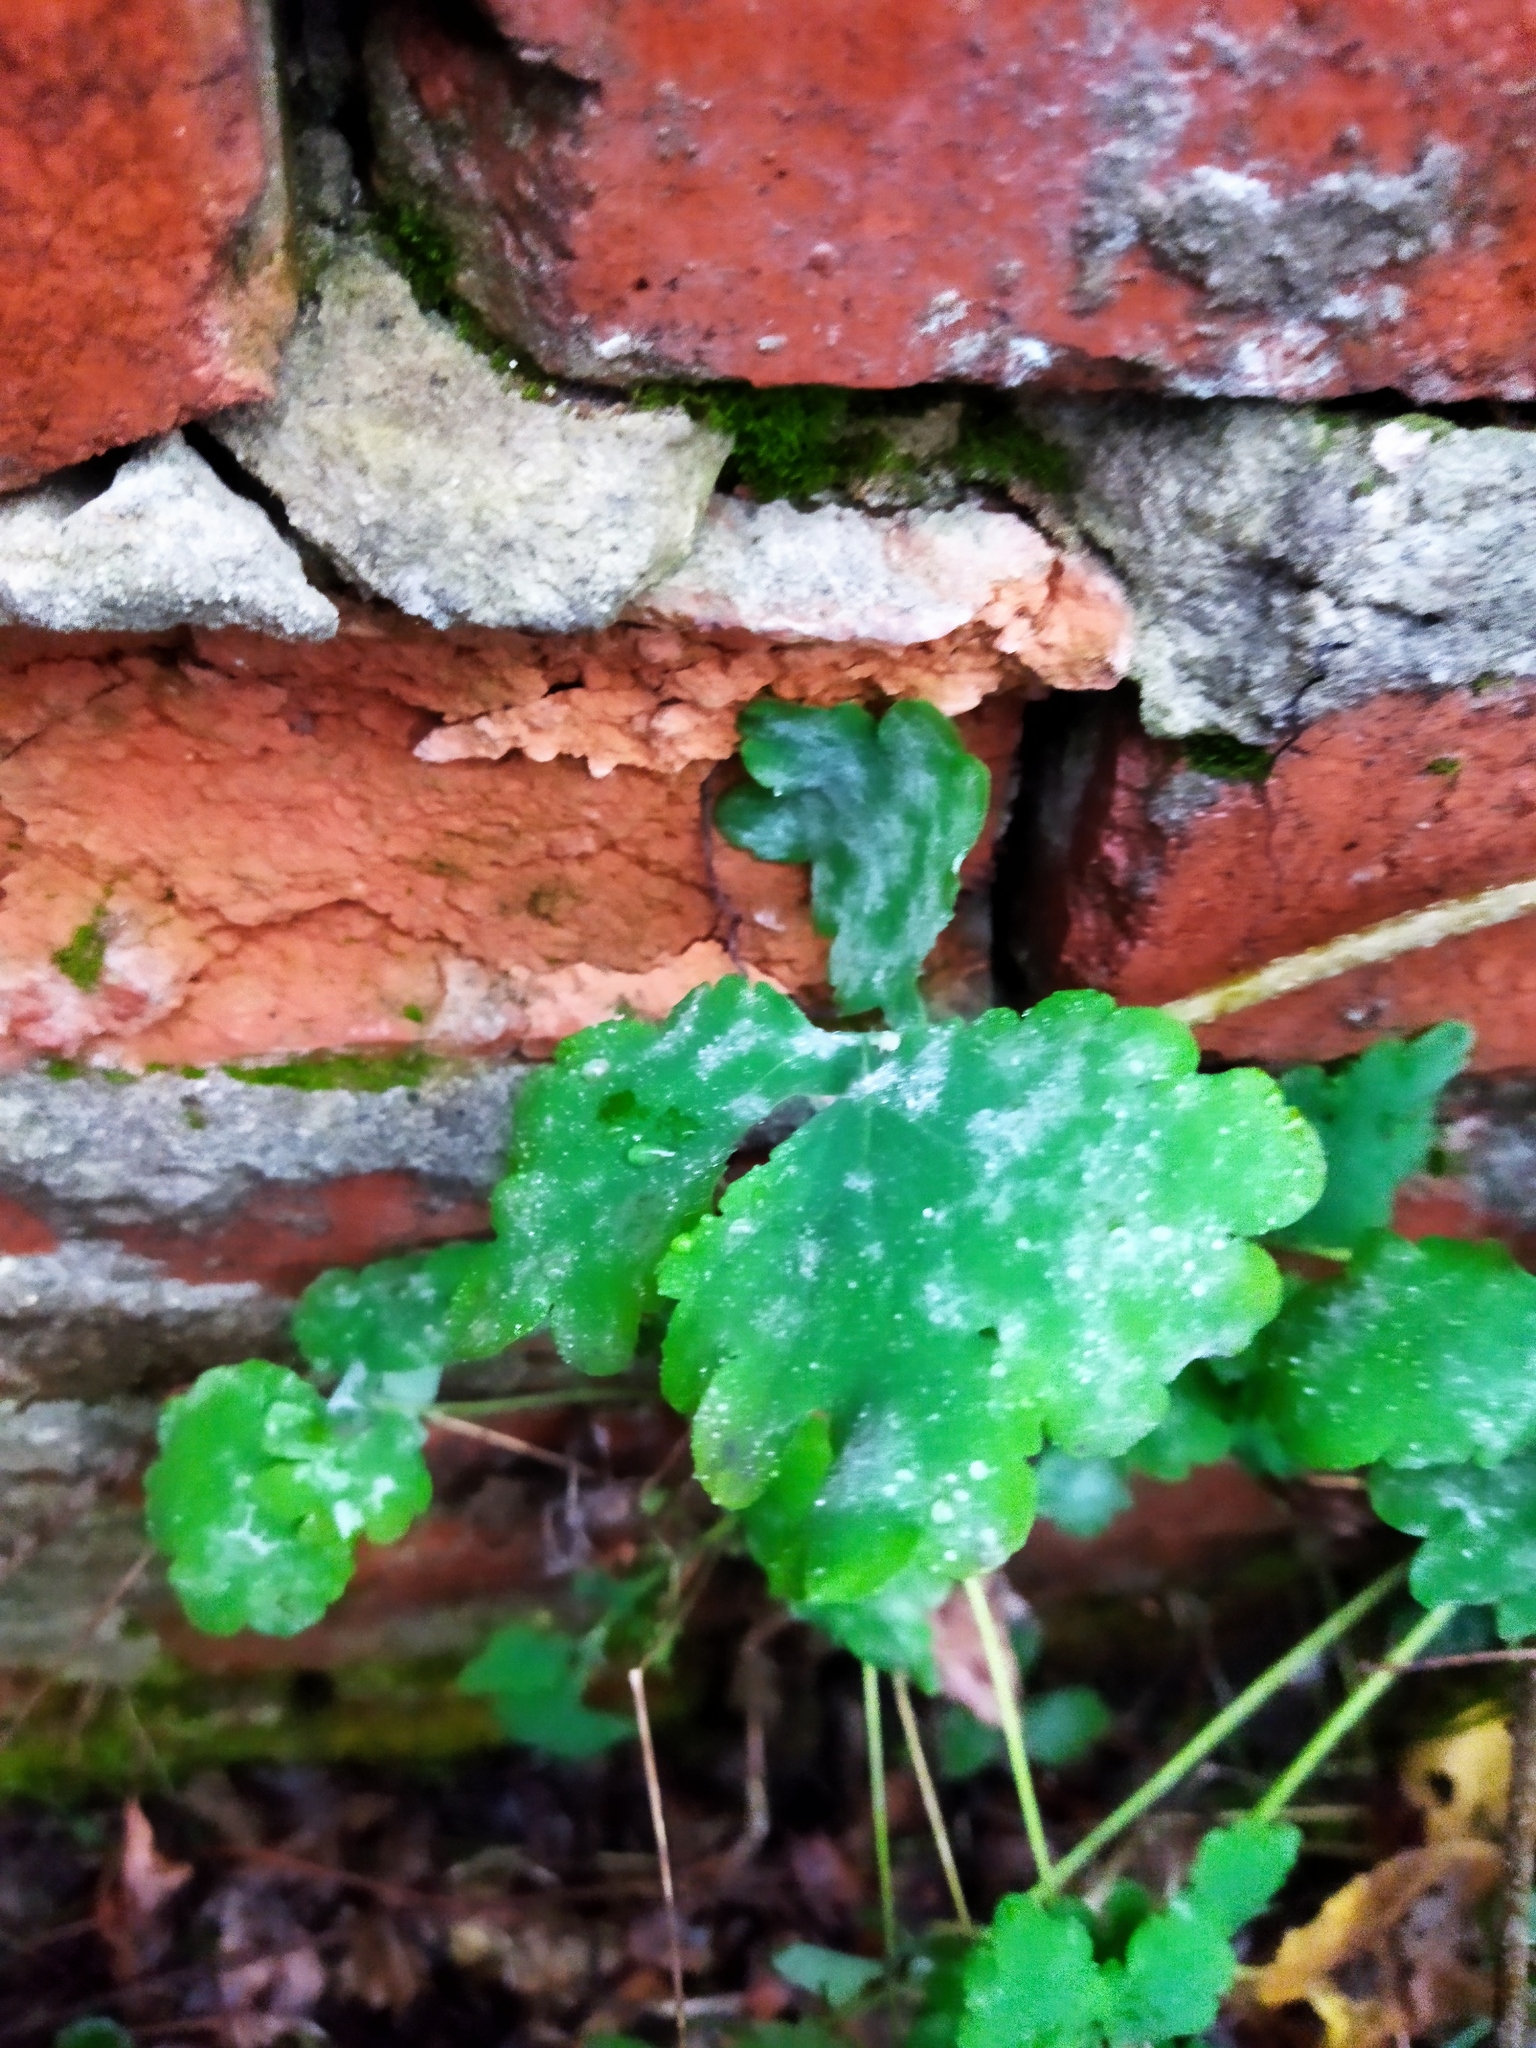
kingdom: Plantae
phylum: Tracheophyta
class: Magnoliopsida
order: Ranunculales
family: Papaveraceae
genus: Chelidonium
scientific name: Chelidonium majus
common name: Greater celandine
